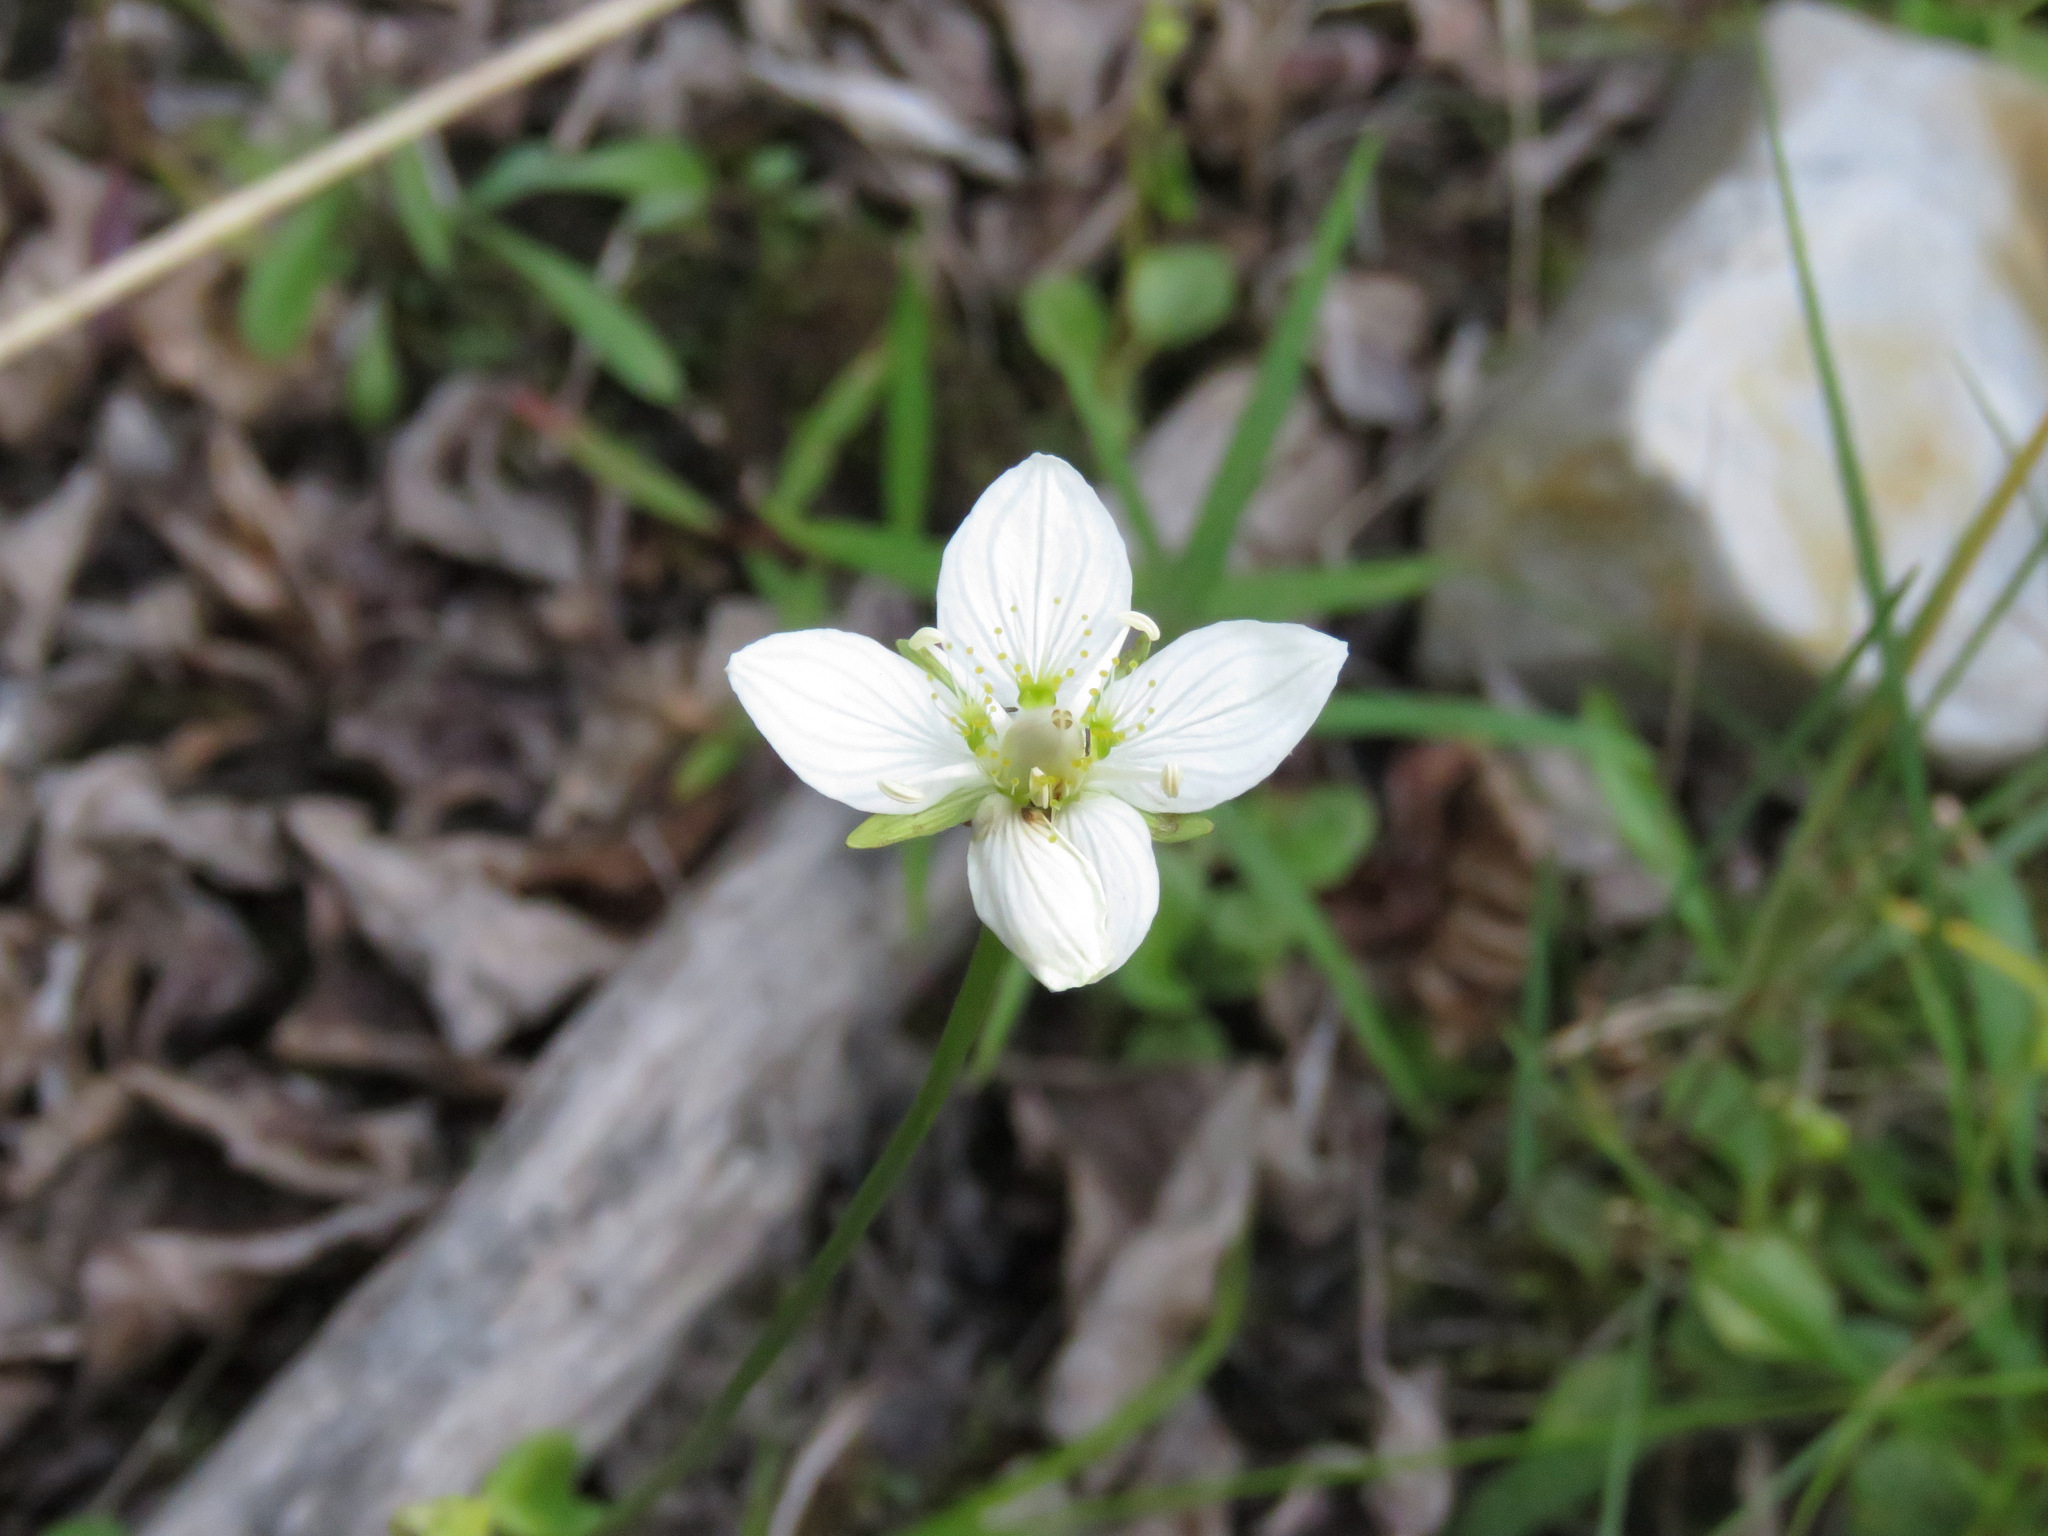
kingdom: Plantae
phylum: Tracheophyta
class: Magnoliopsida
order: Celastrales
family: Parnassiaceae
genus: Parnassia
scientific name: Parnassia palustris
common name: Grass-of-parnassus
